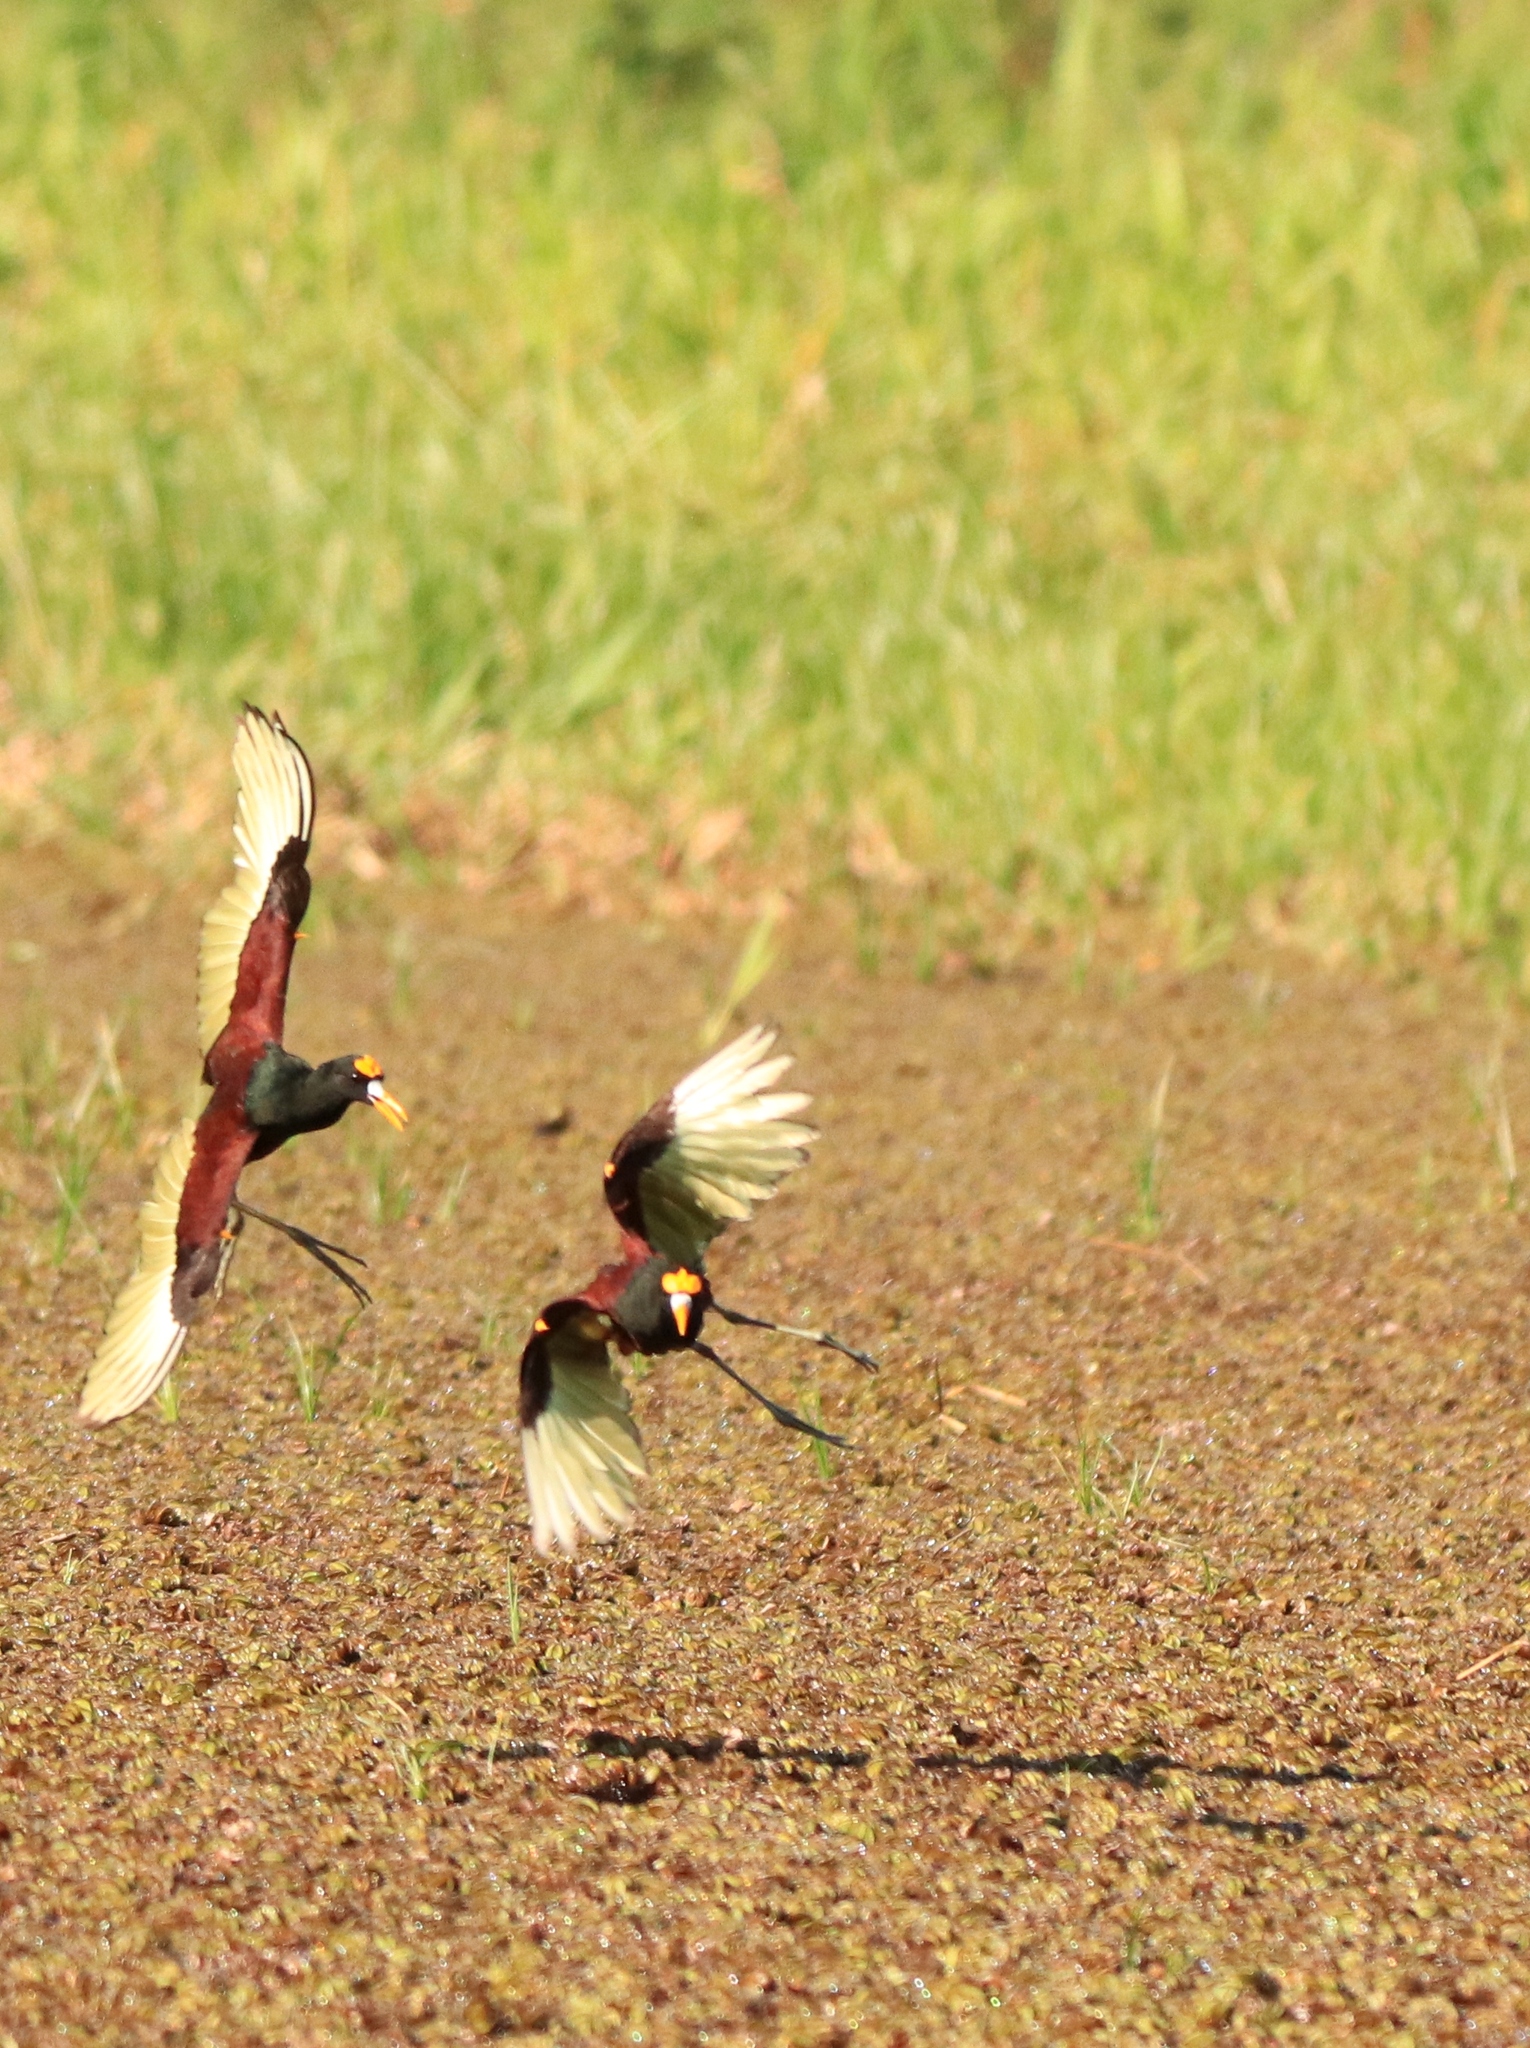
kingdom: Animalia
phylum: Chordata
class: Aves
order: Charadriiformes
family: Jacanidae
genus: Jacana
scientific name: Jacana spinosa
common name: Northern jacana
